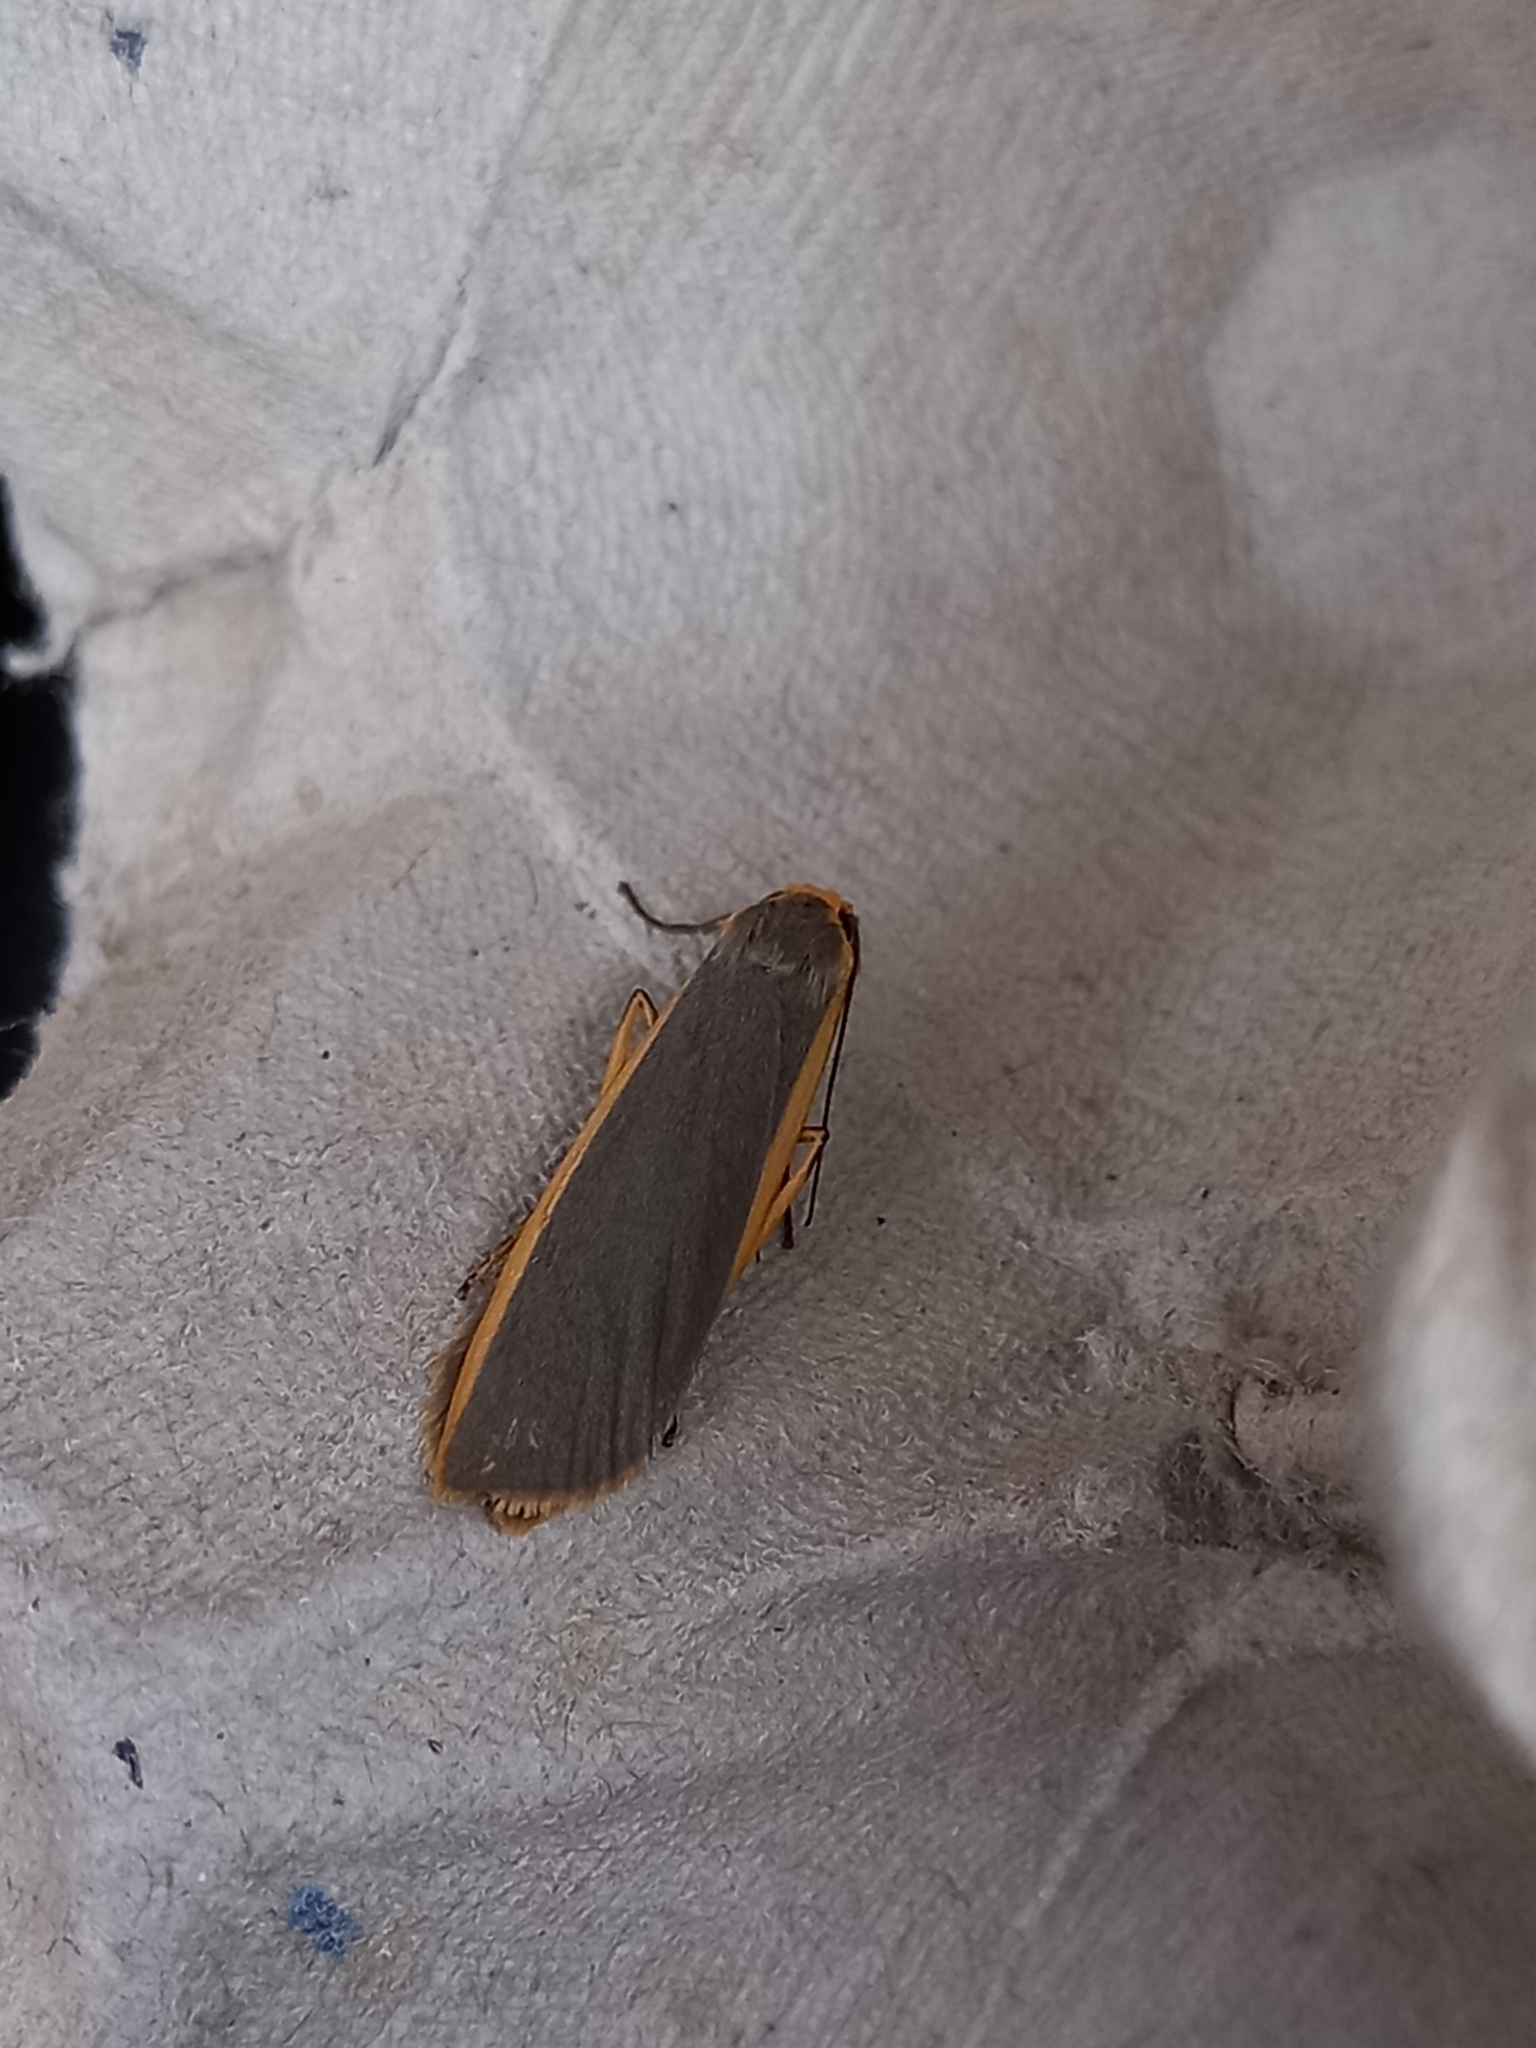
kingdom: Animalia
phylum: Arthropoda
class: Insecta
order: Lepidoptera
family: Erebidae
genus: Nyea
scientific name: Nyea lurideola
